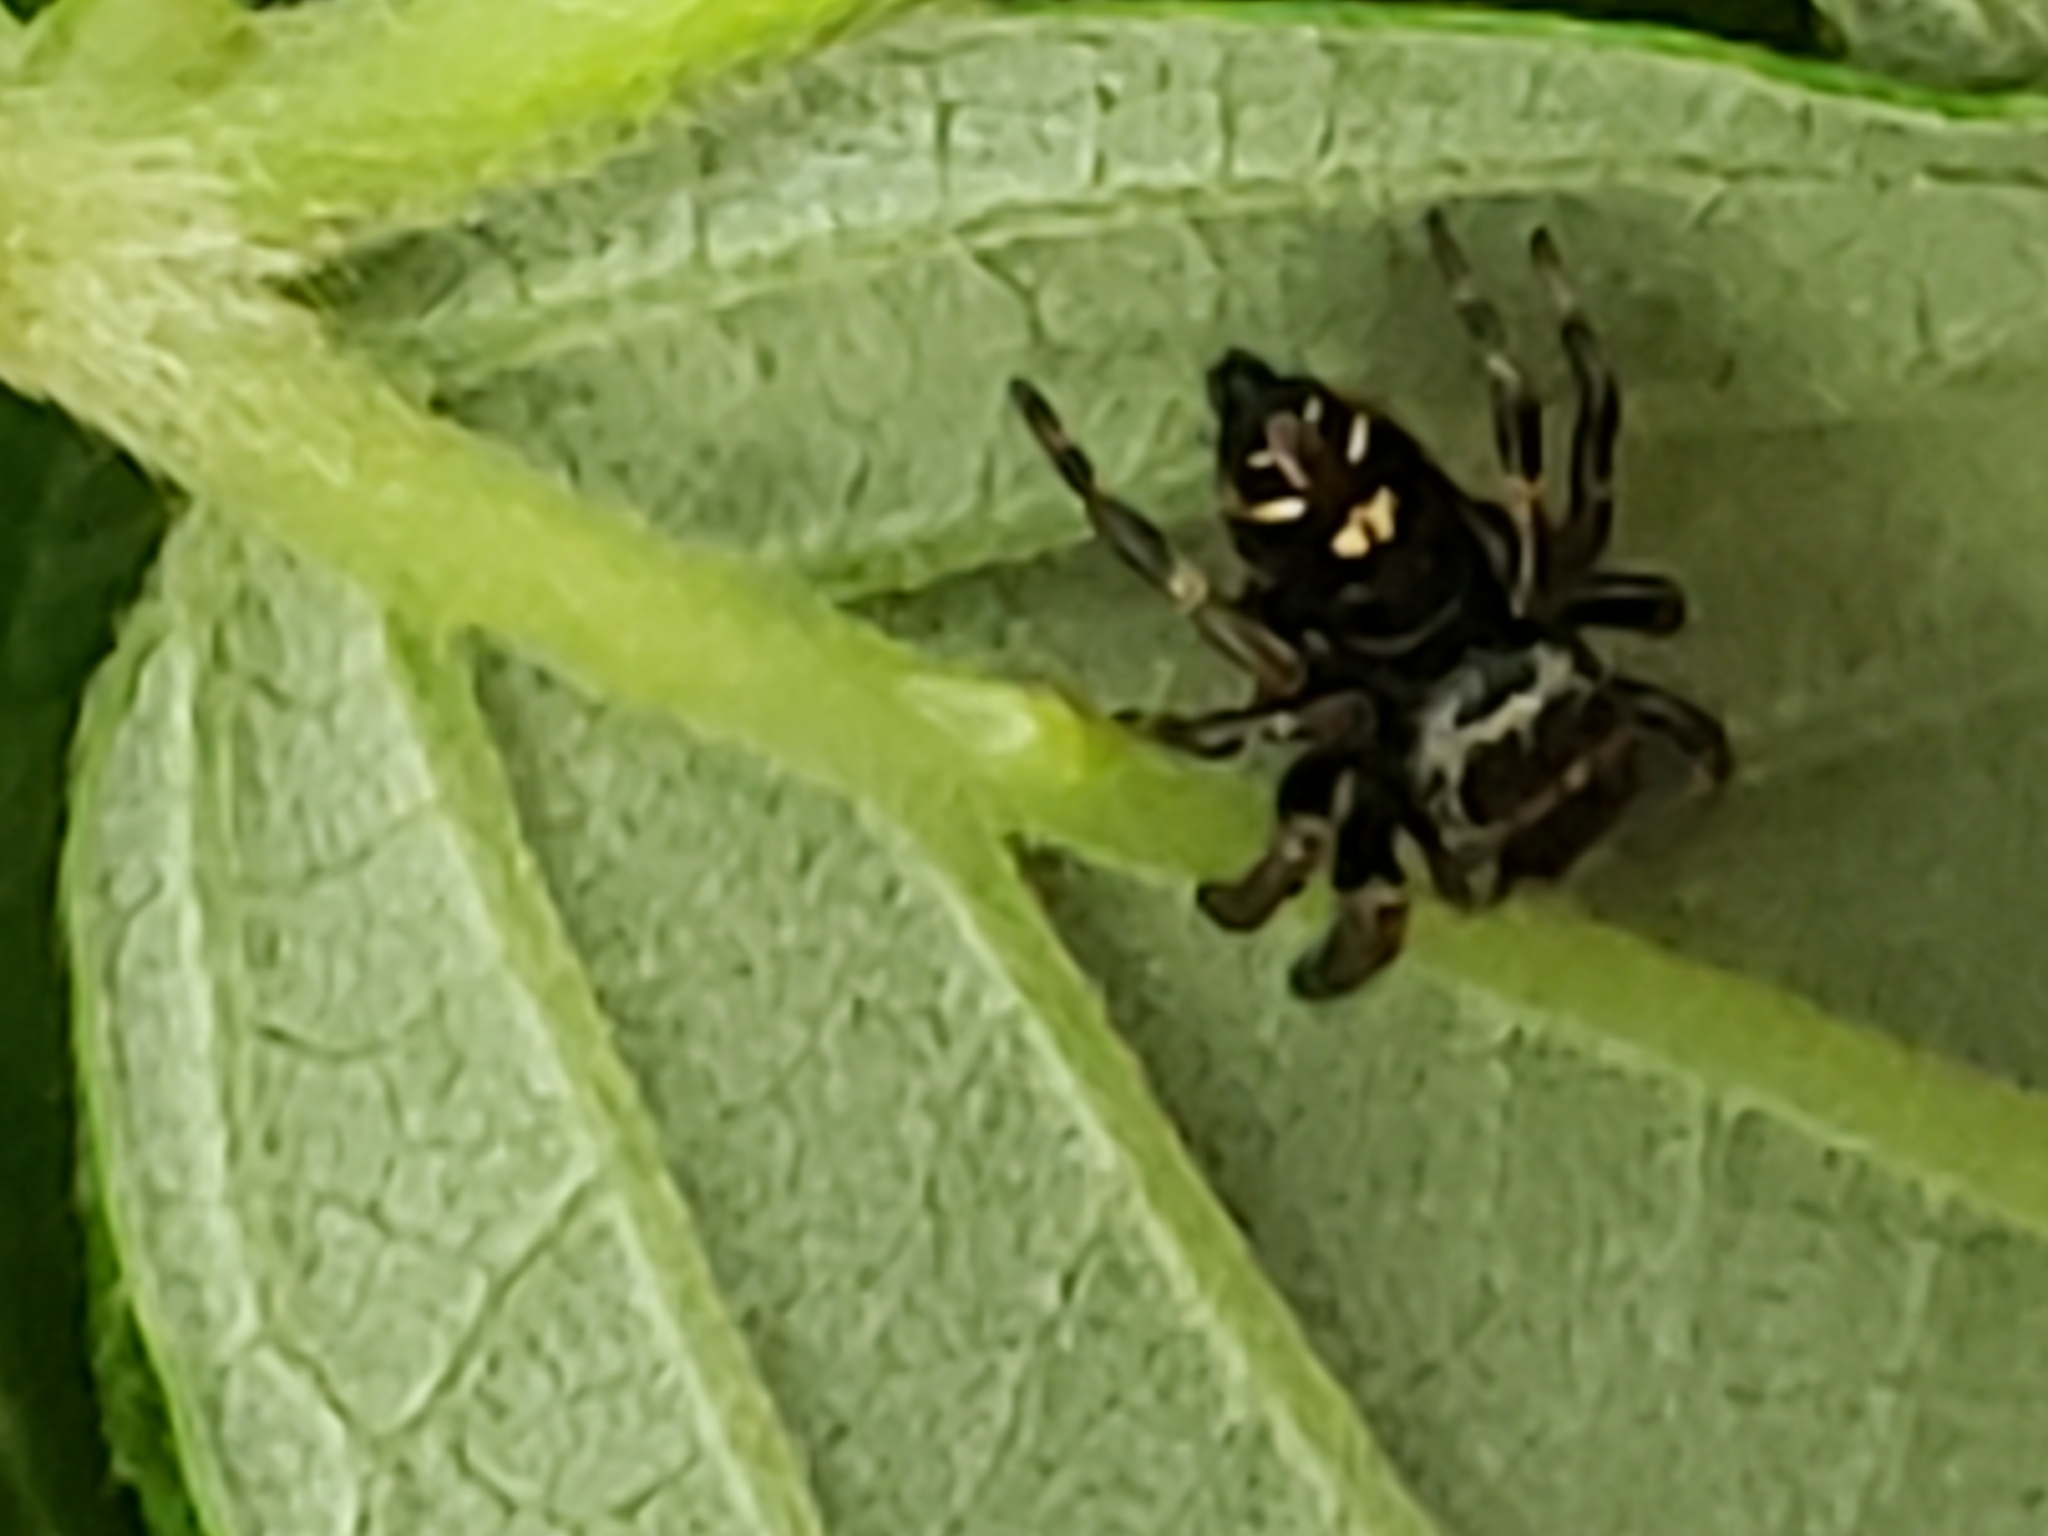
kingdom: Animalia
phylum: Arthropoda
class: Arachnida
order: Araneae
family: Salticidae
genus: Phidippus
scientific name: Phidippus audax
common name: Bold jumper
